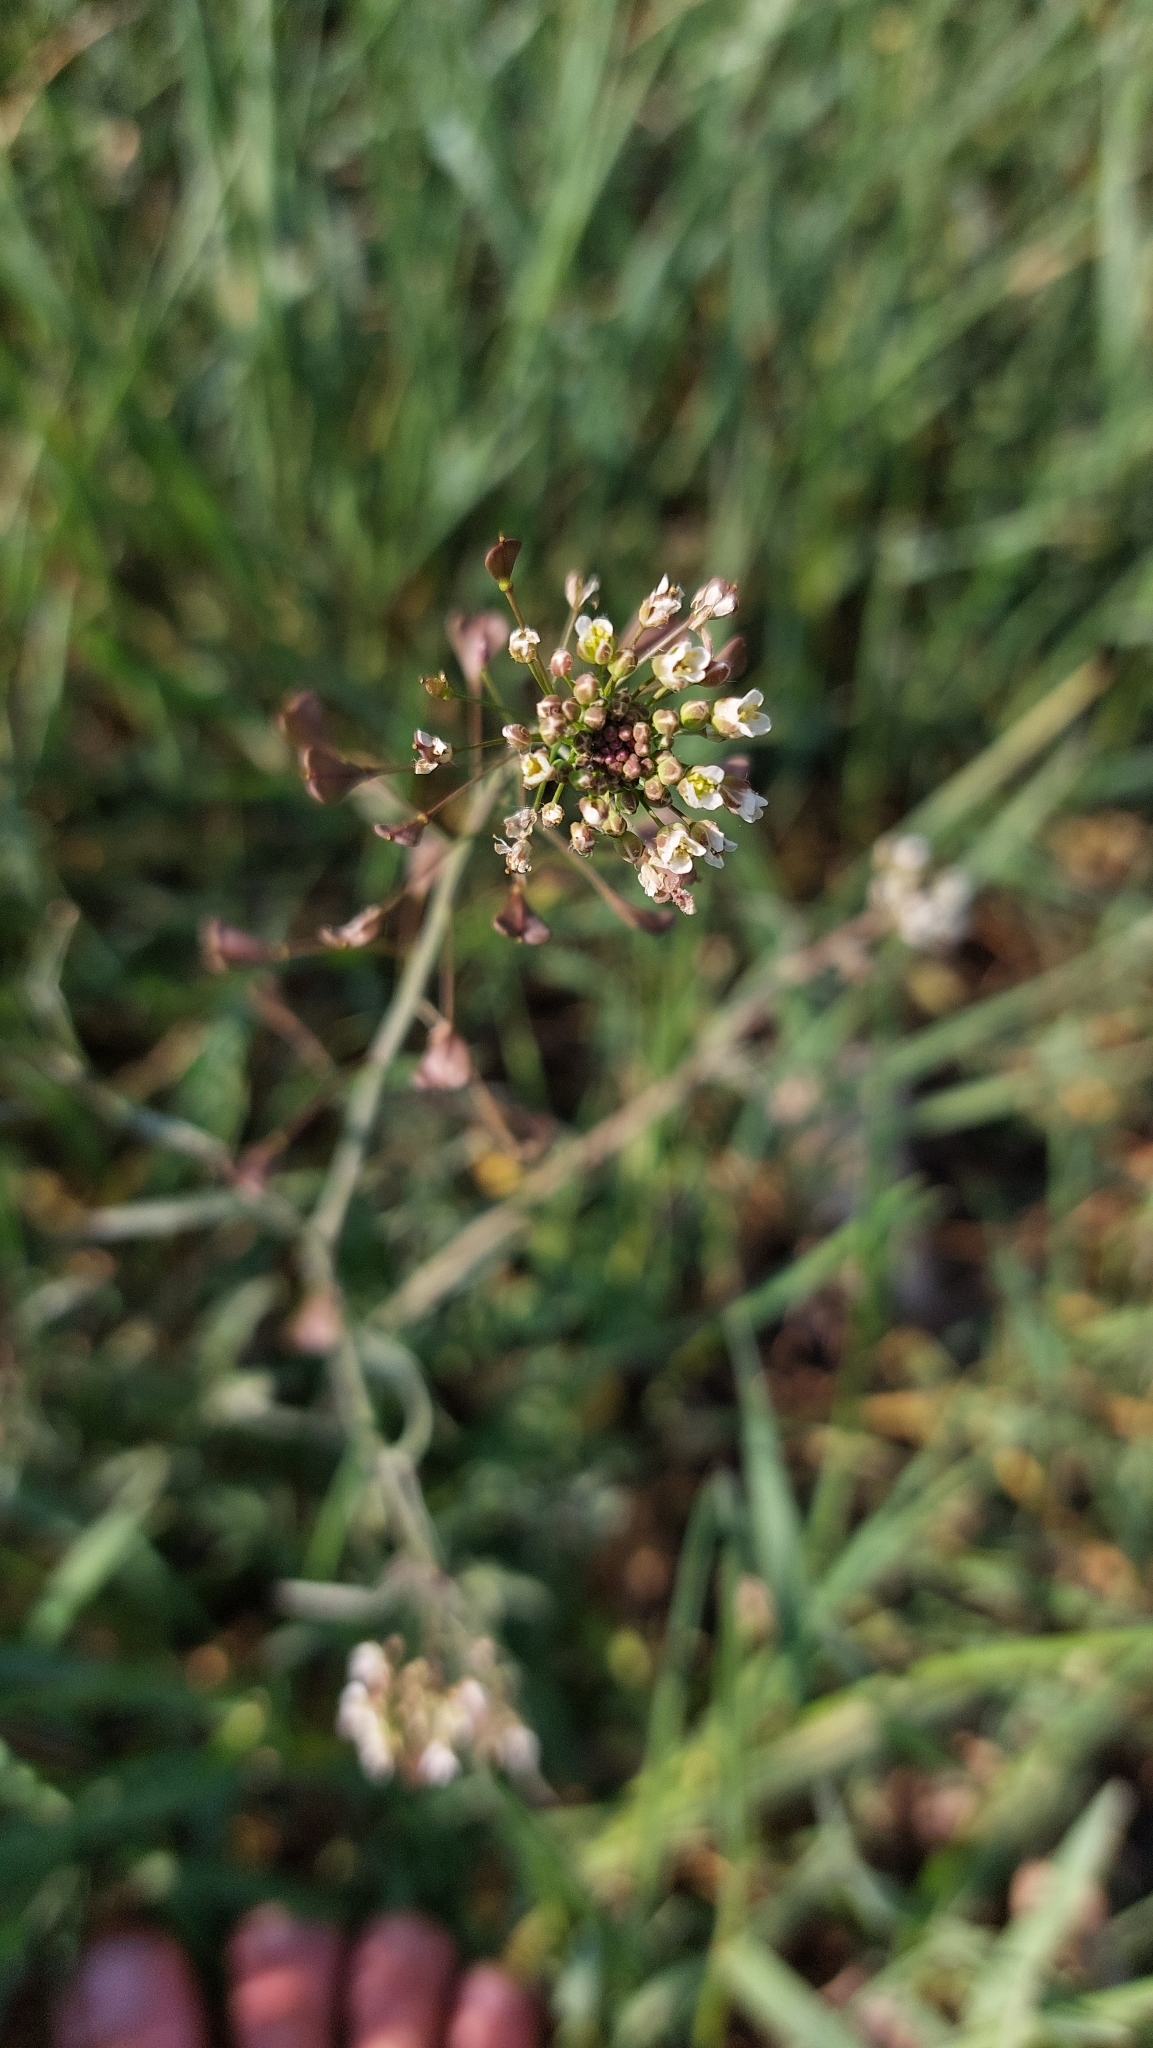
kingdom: Plantae
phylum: Tracheophyta
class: Magnoliopsida
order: Brassicales
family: Brassicaceae
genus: Capsella
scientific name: Capsella bursa-pastoris
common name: Shepherd's purse
